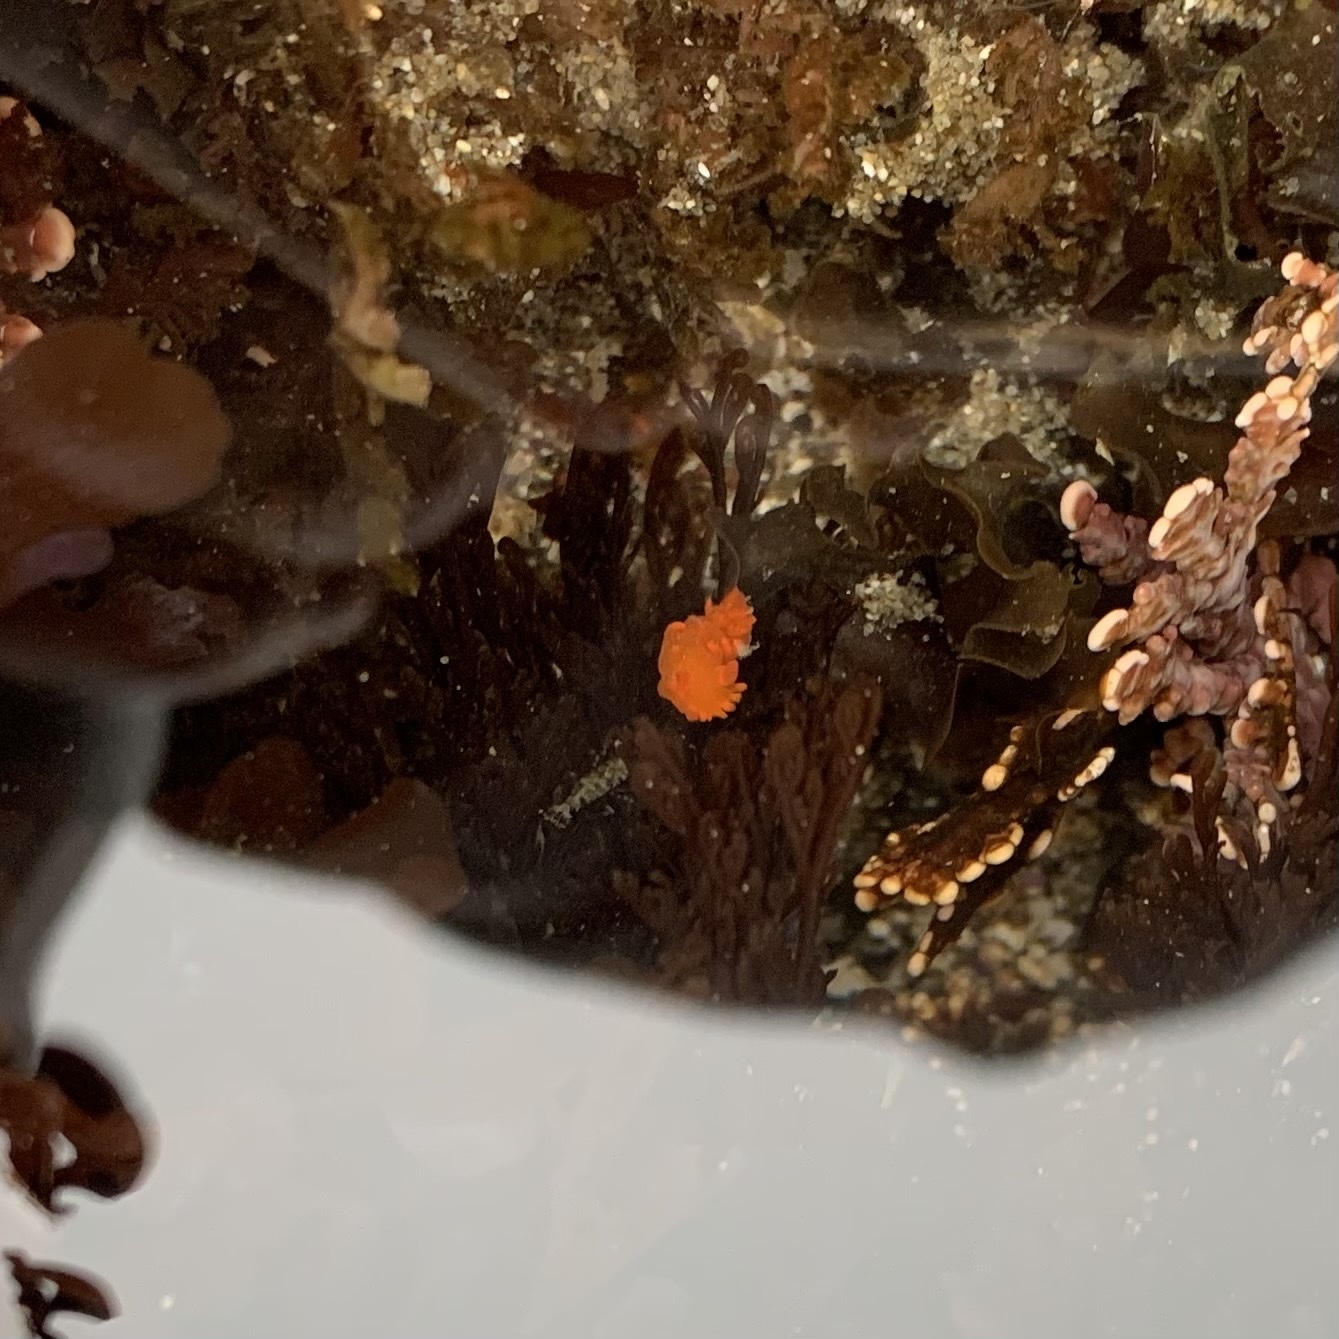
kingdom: Animalia
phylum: Mollusca
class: Gastropoda
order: Nudibranchia
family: Polyceridae
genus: Triopha
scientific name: Triopha maculata
